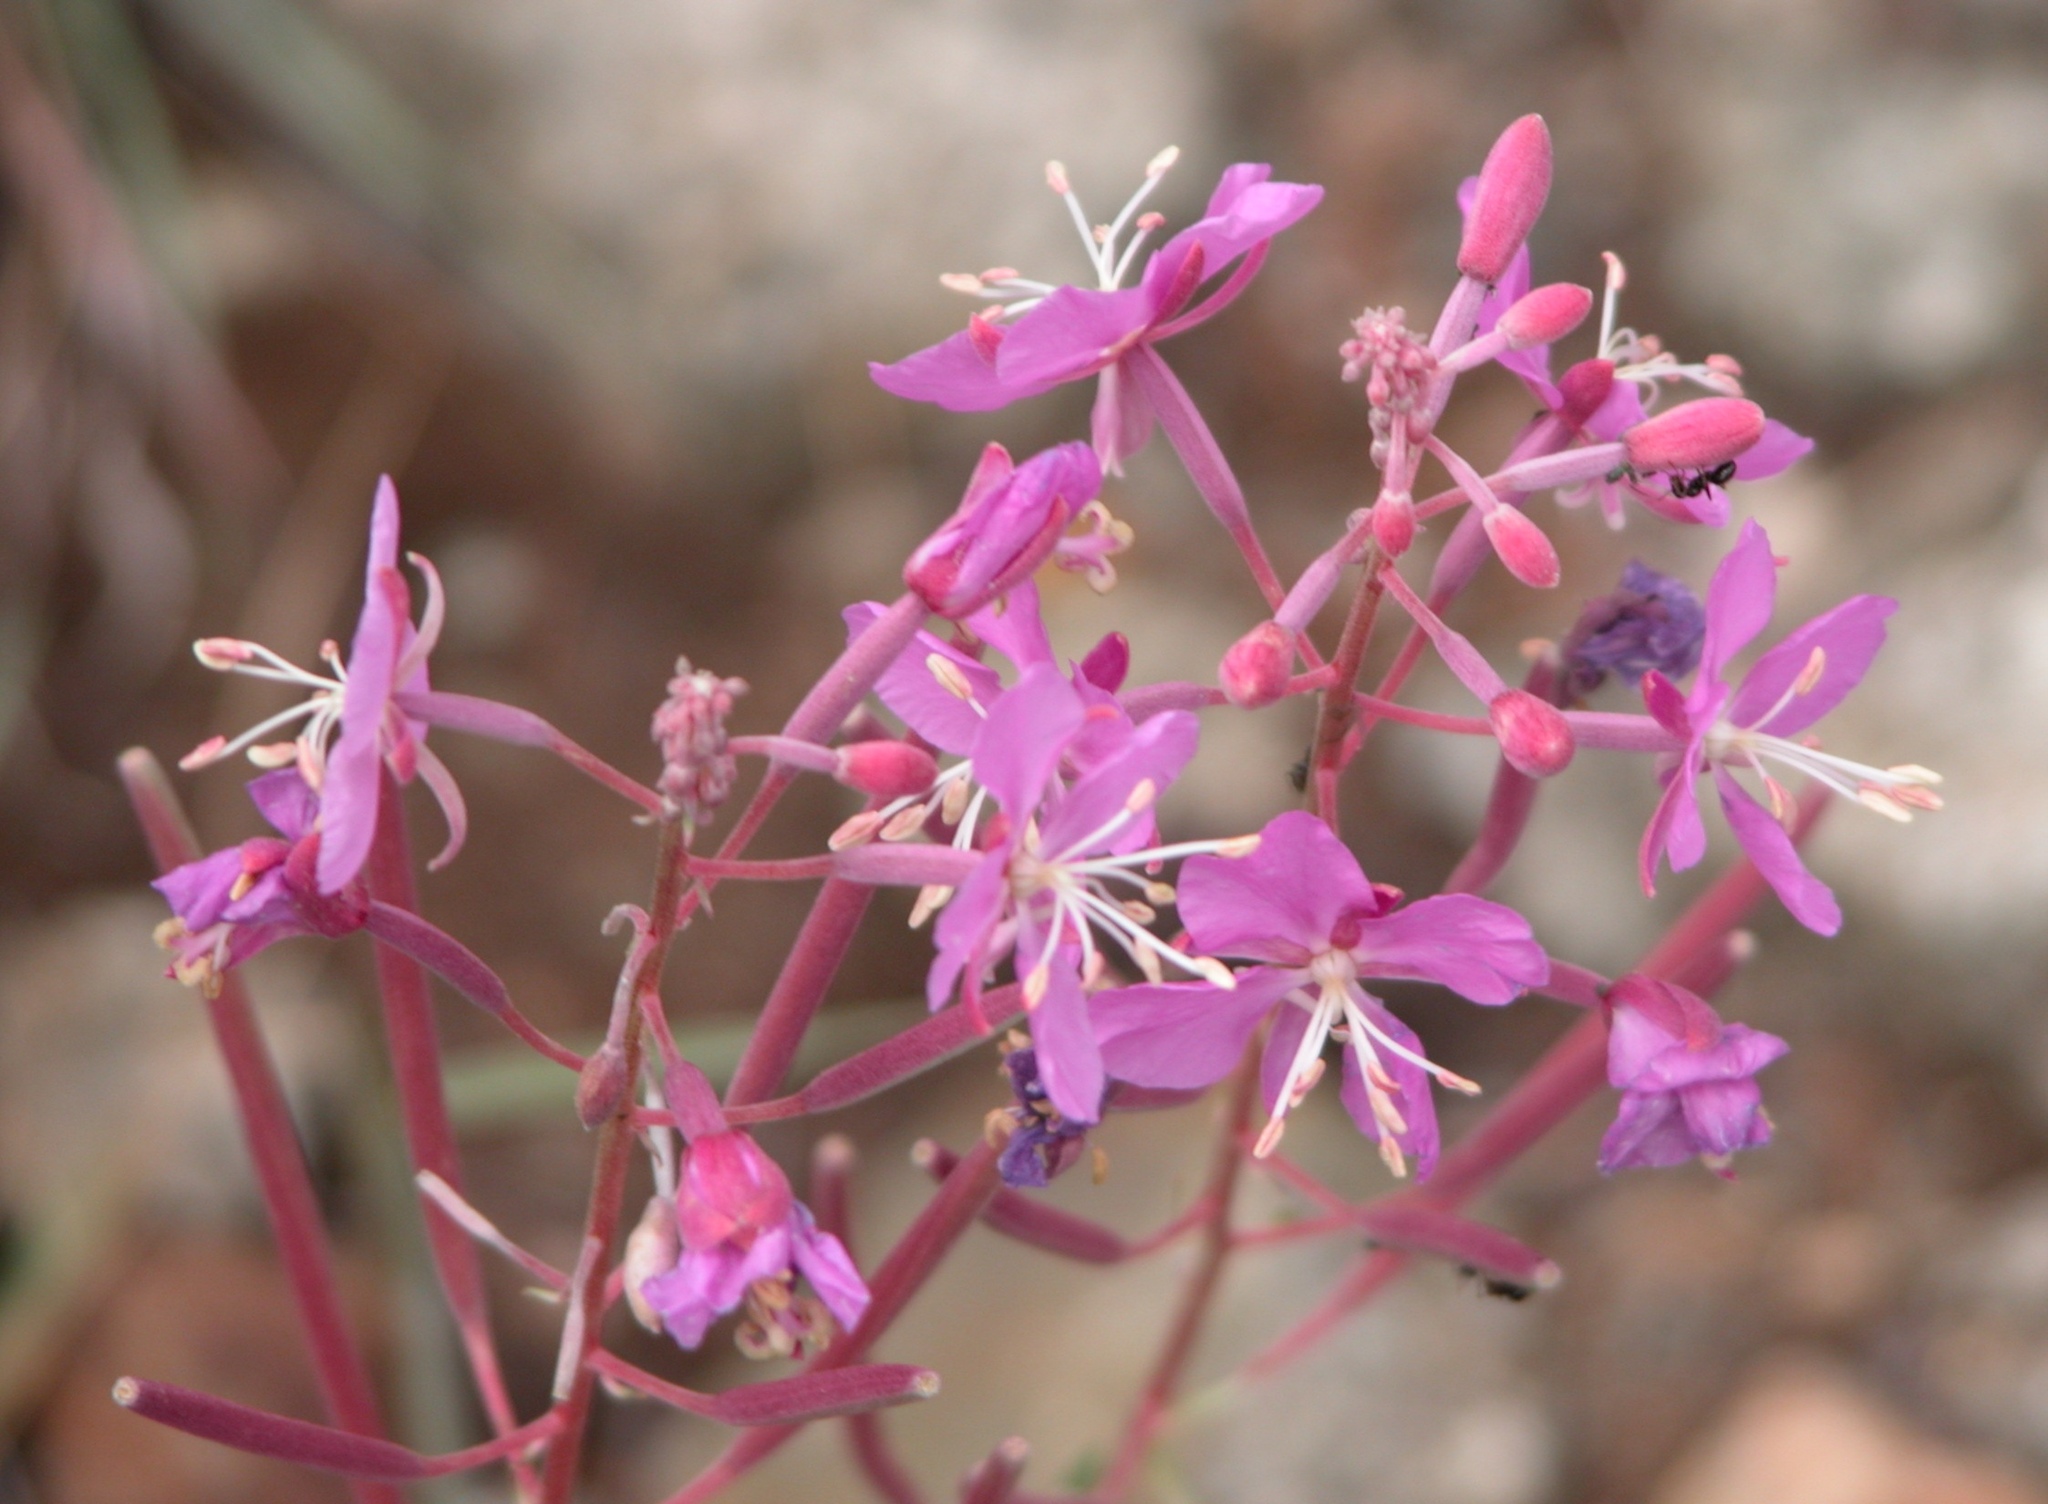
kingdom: Plantae
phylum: Tracheophyta
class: Magnoliopsida
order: Myrtales
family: Onagraceae
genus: Chamaenerion
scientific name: Chamaenerion angustifolium
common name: Fireweed
